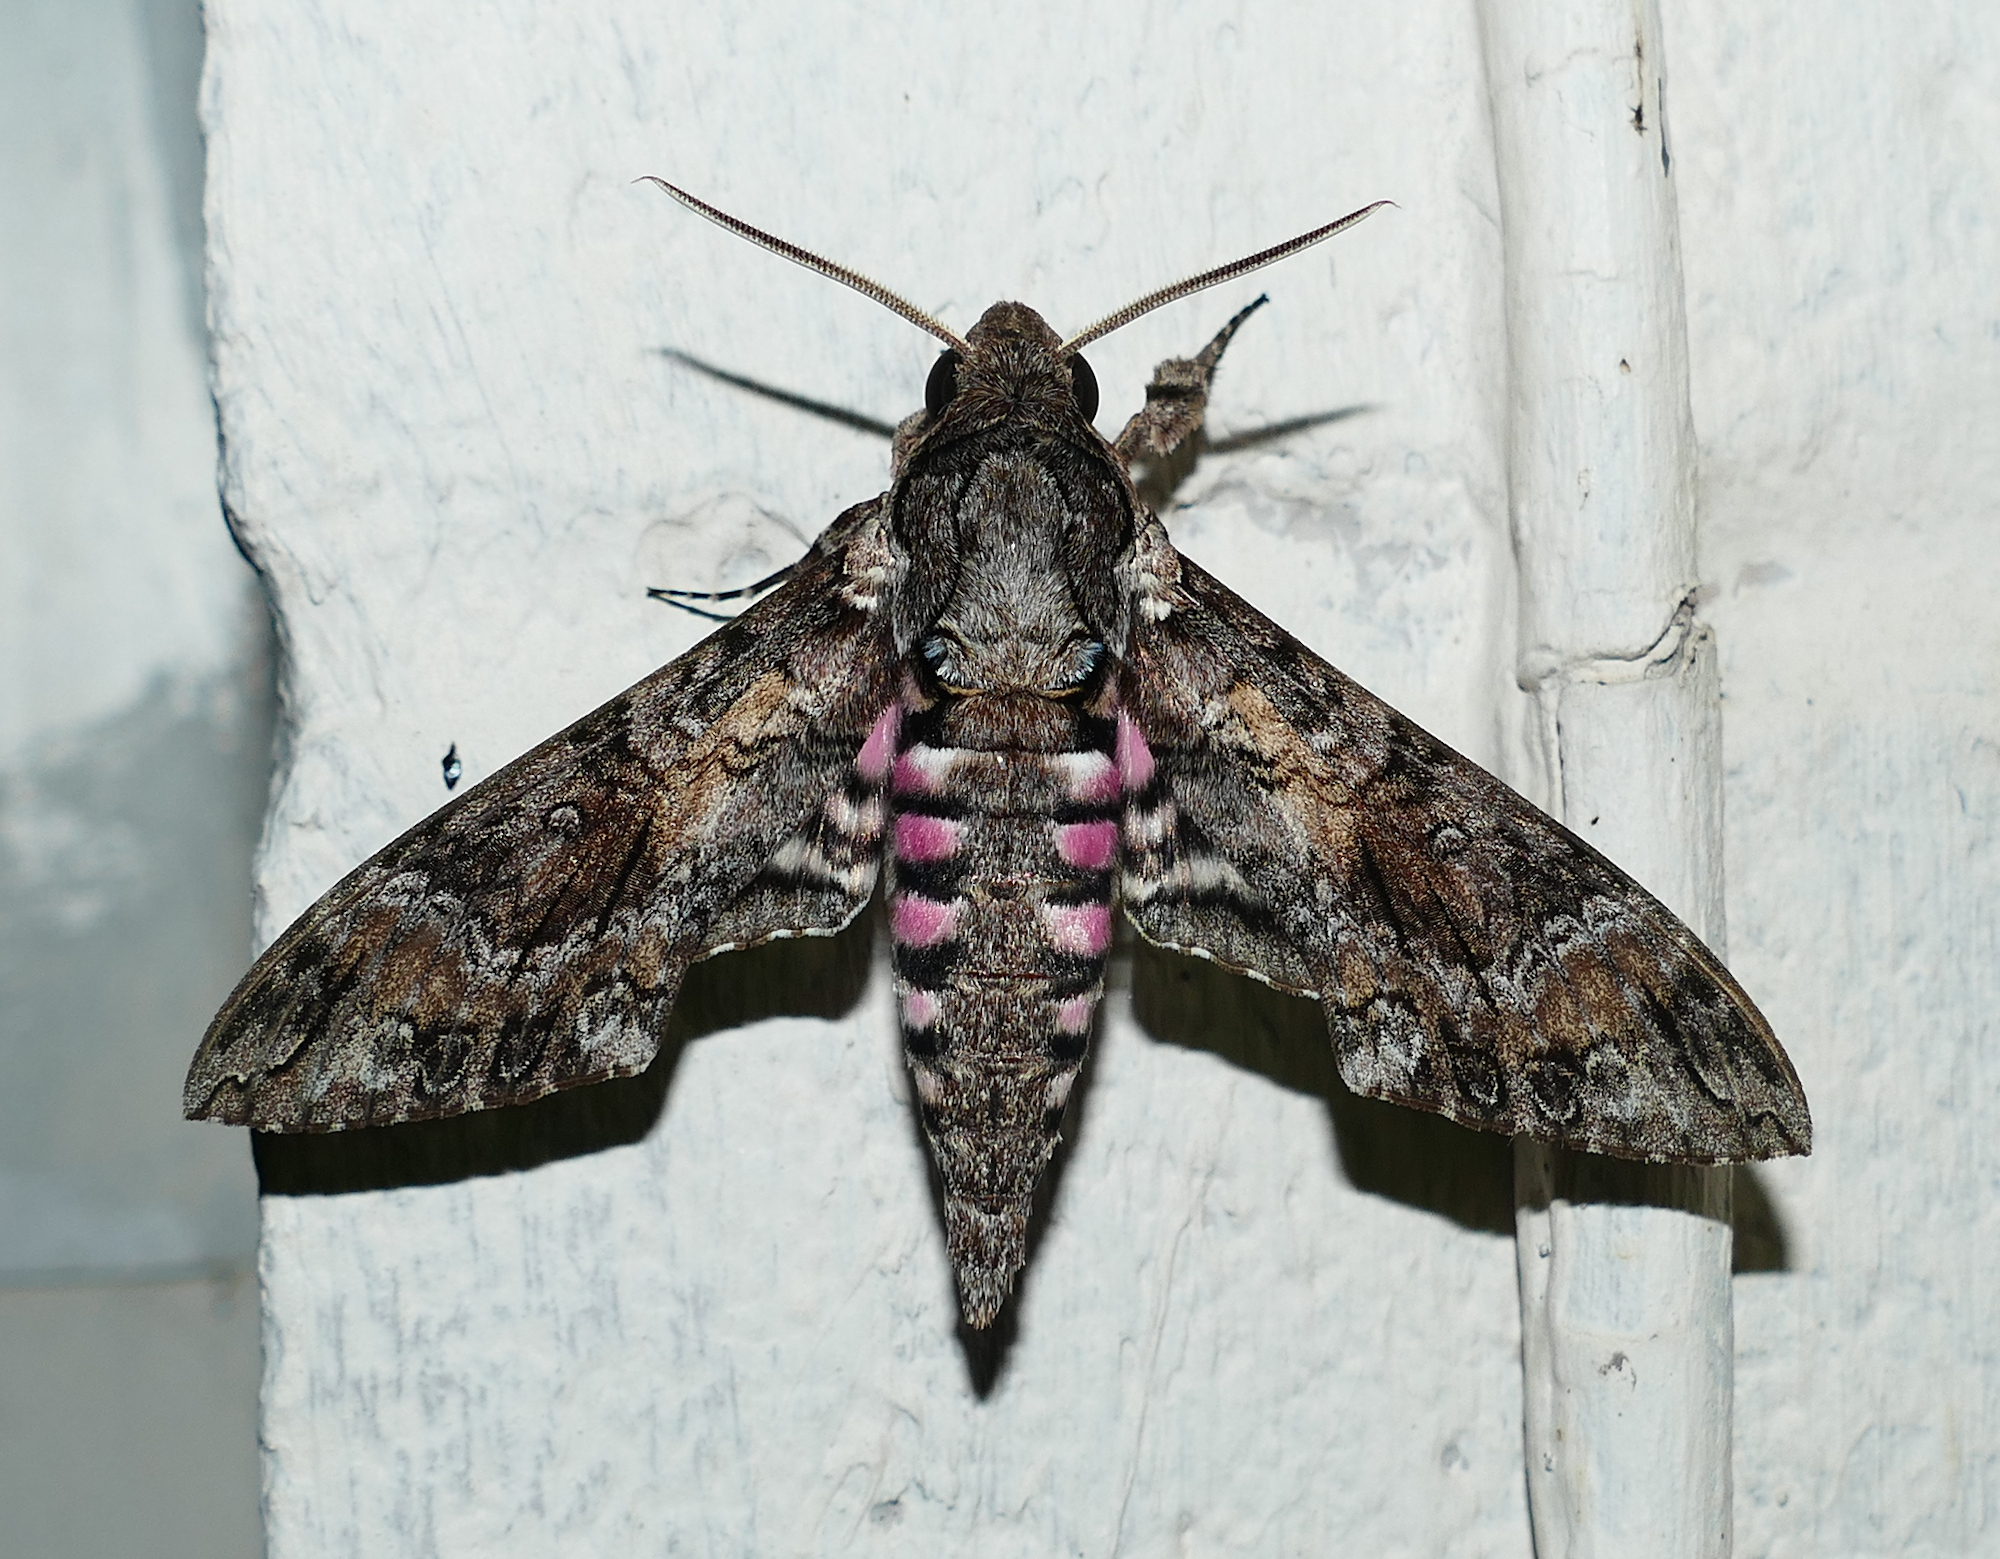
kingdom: Animalia
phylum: Arthropoda
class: Insecta
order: Lepidoptera
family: Sphingidae
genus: Agrius
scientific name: Agrius cingulata
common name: Pink-spotted hawkmoth
